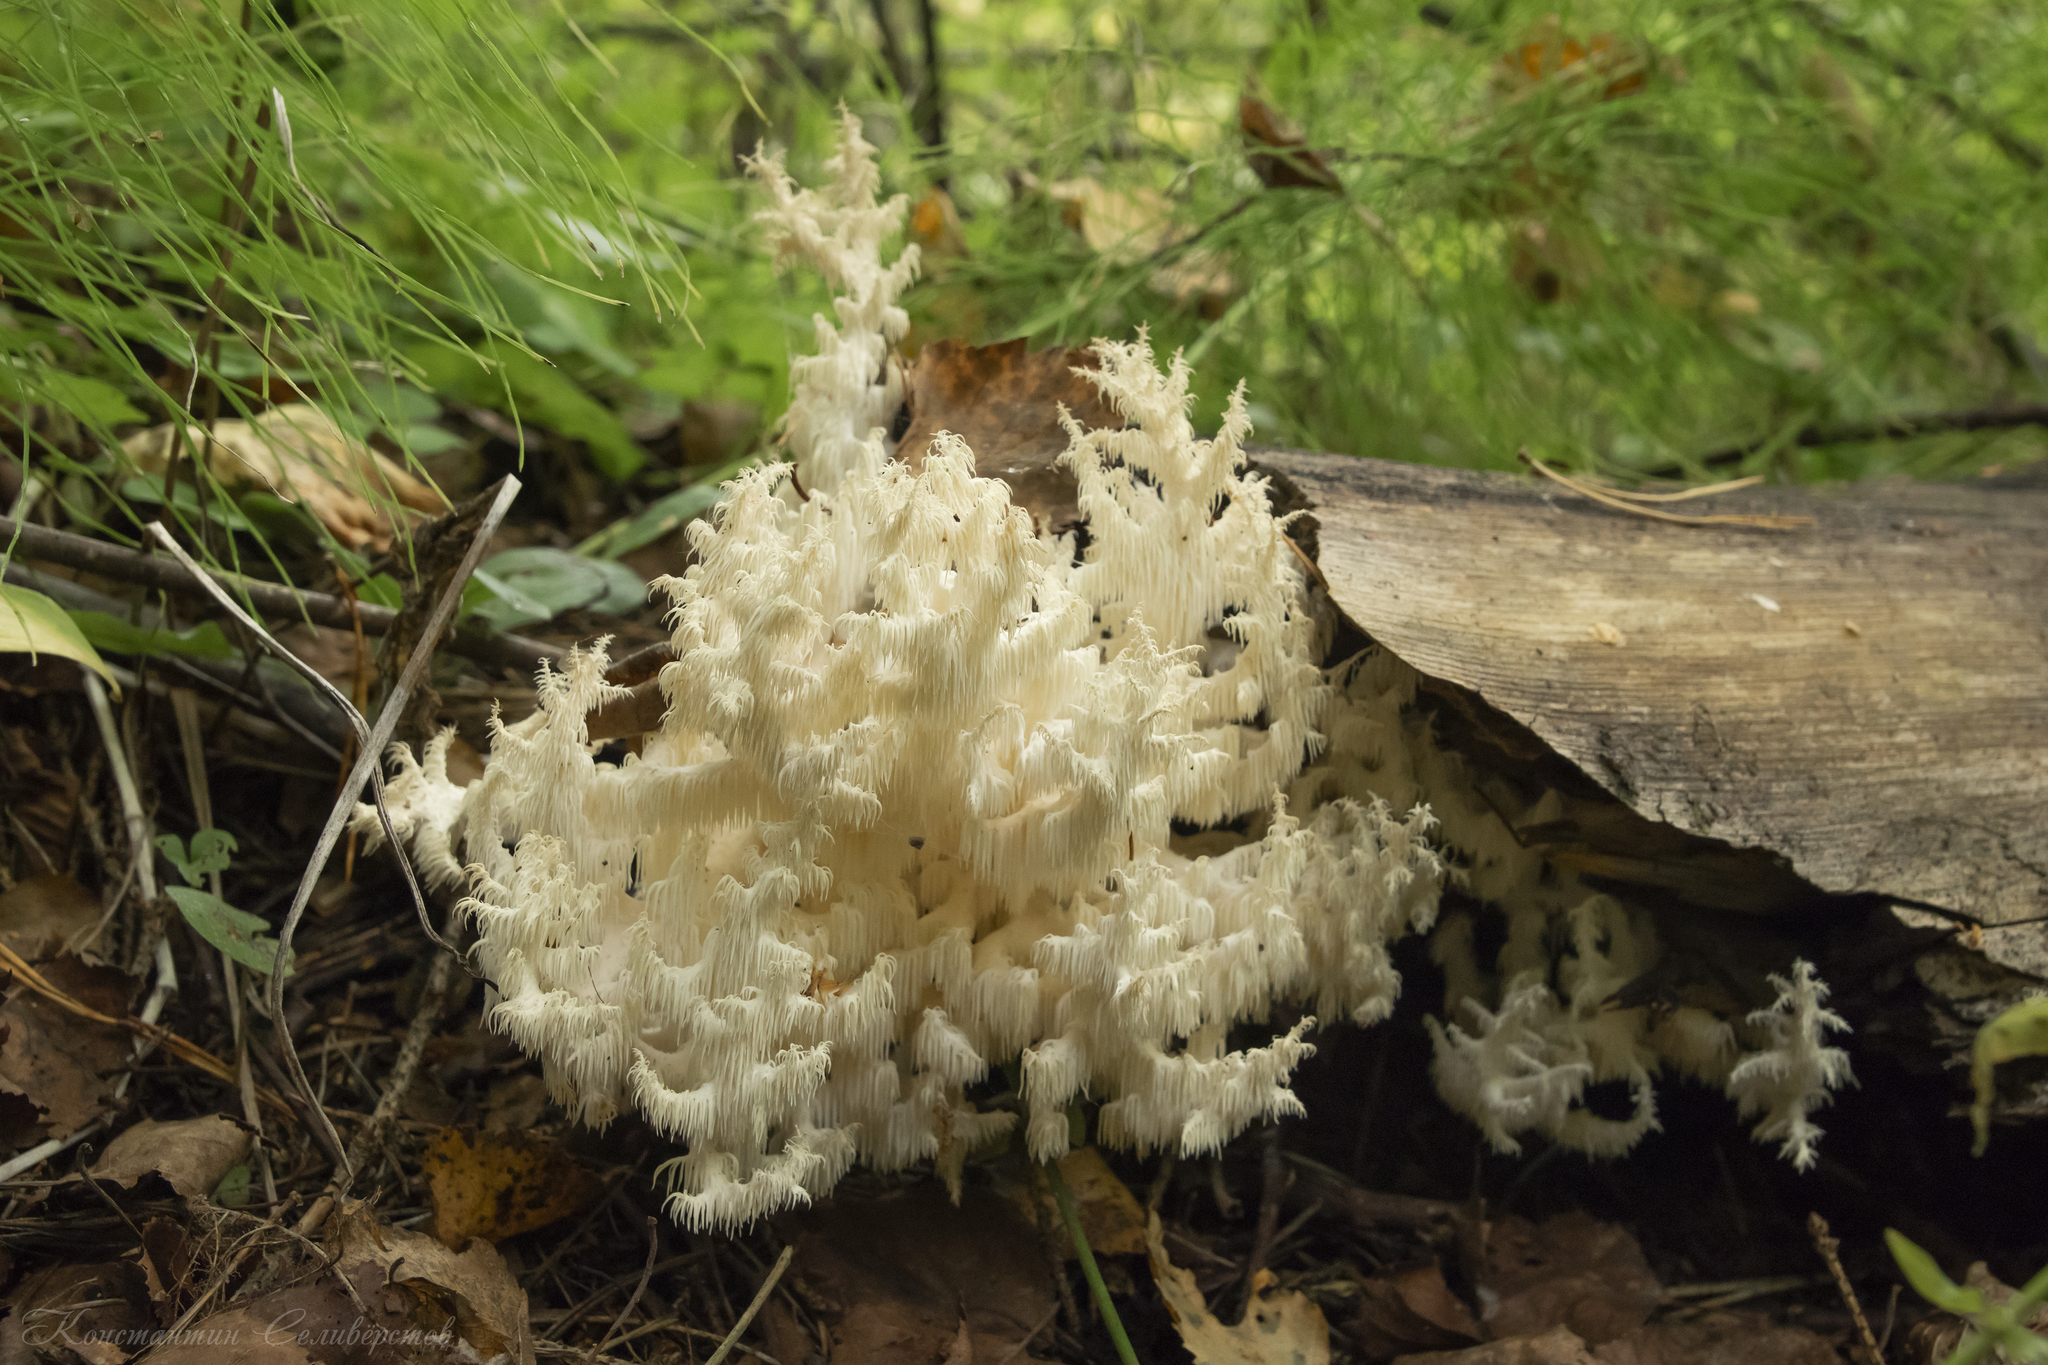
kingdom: Fungi
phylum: Basidiomycota
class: Agaricomycetes
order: Russulales
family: Hericiaceae
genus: Hericium
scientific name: Hericium coralloides
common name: Coral tooth
